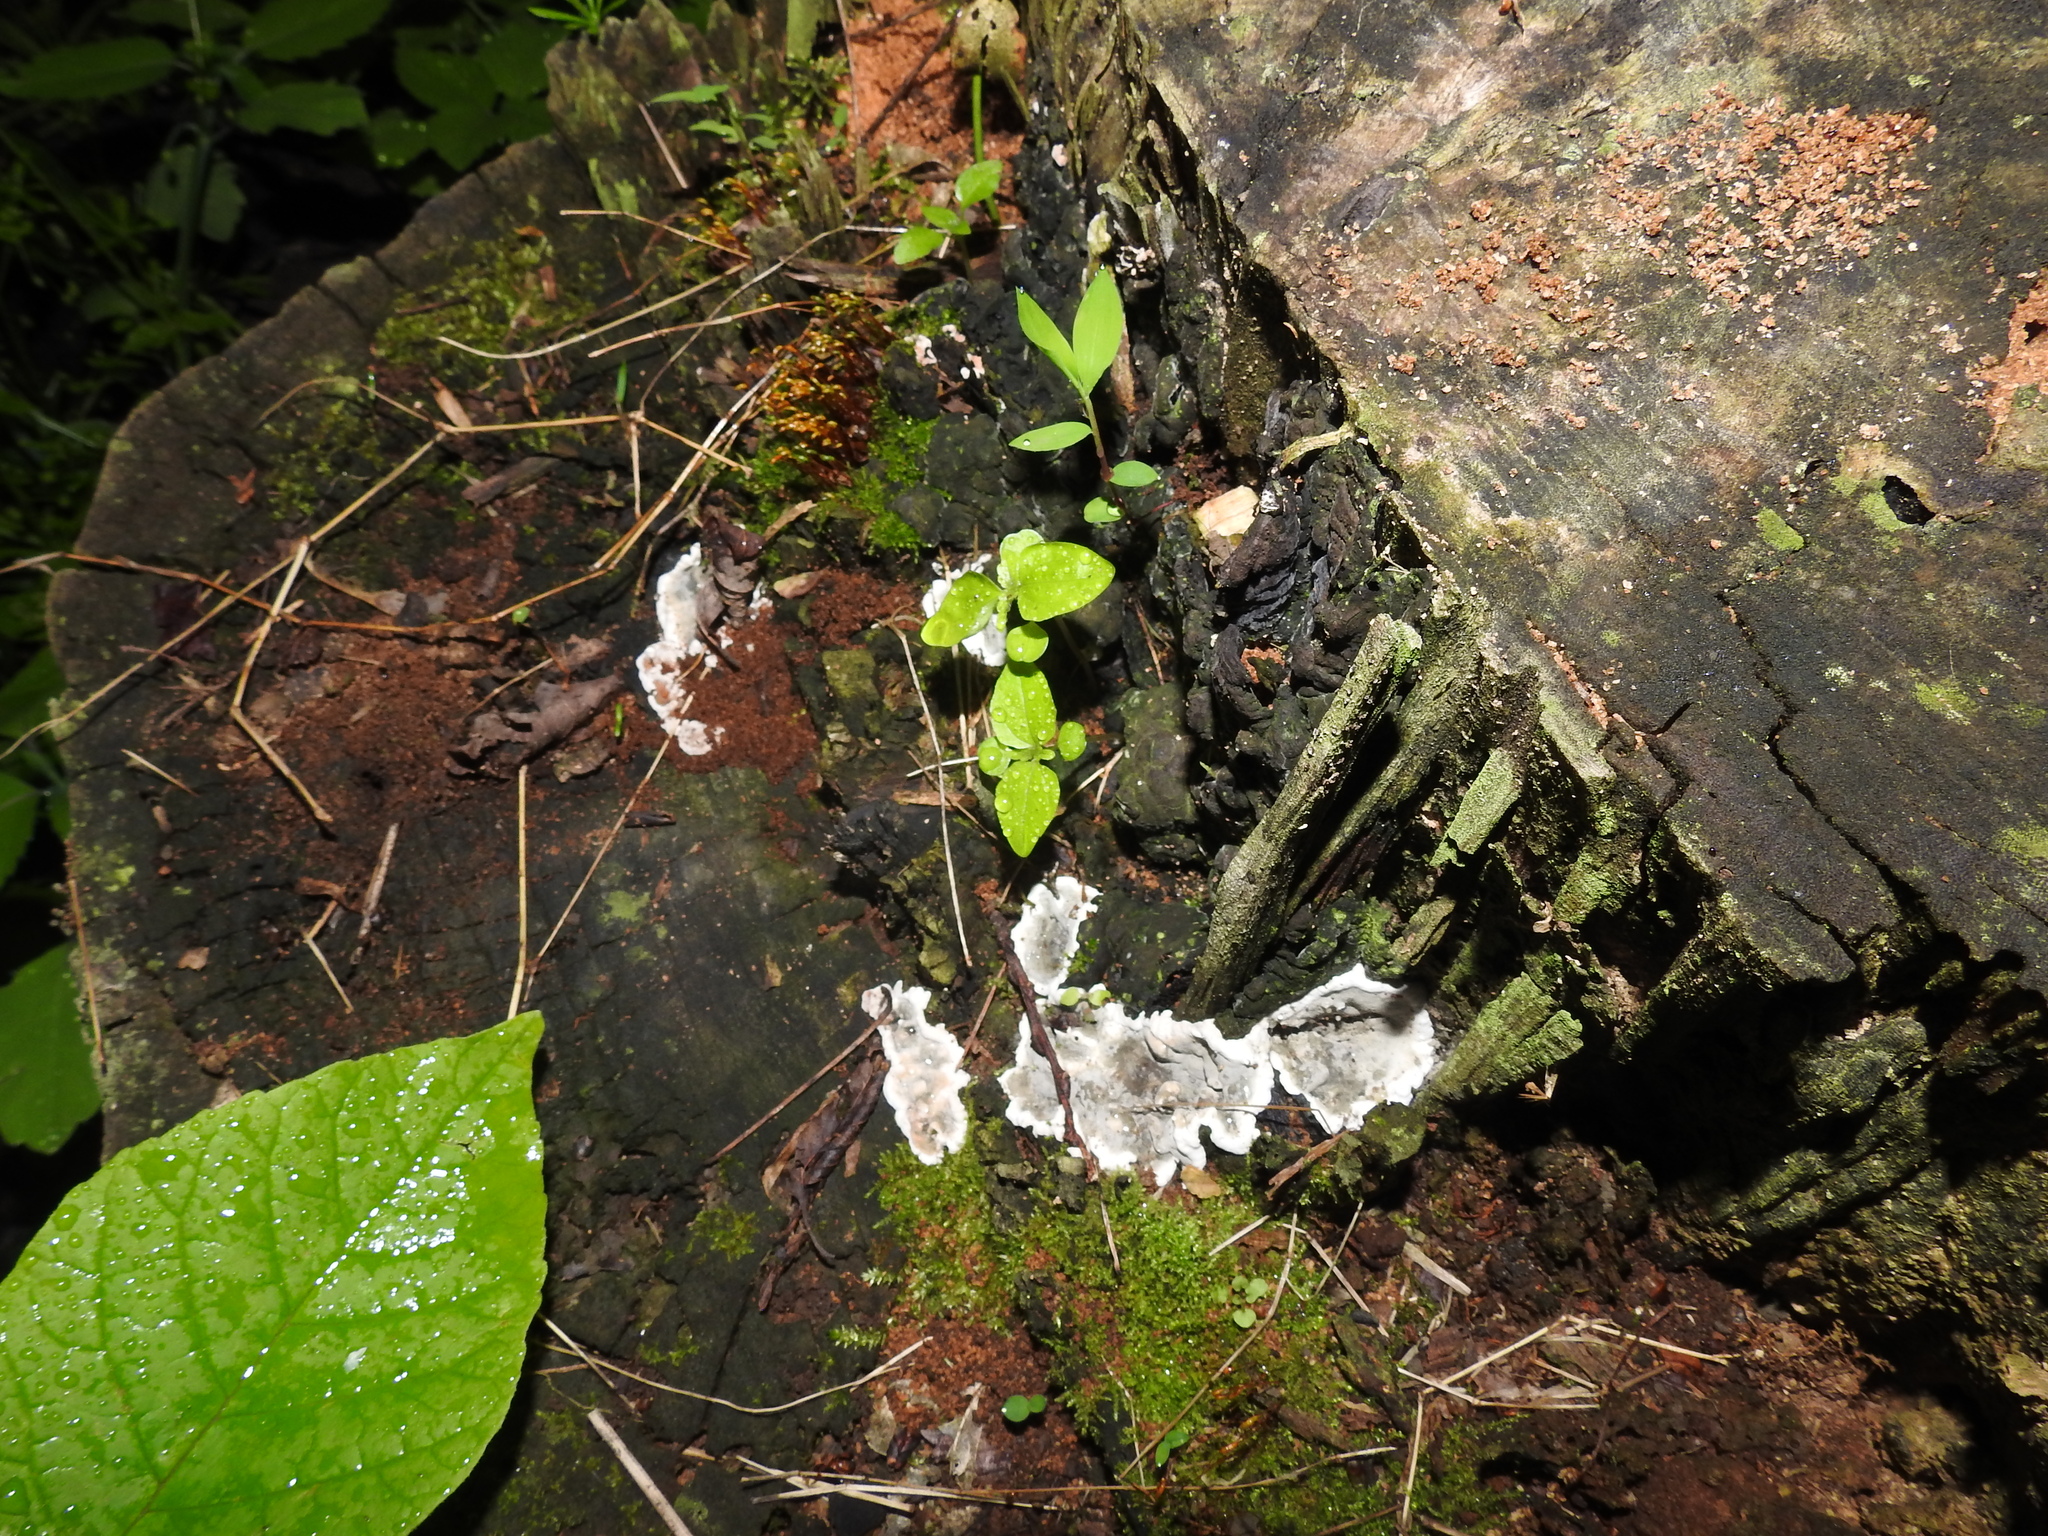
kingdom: Fungi
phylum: Ascomycota
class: Sordariomycetes
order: Xylariales
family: Xylariaceae
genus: Kretzschmaria
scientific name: Kretzschmaria deusta
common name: Brittle cinder
